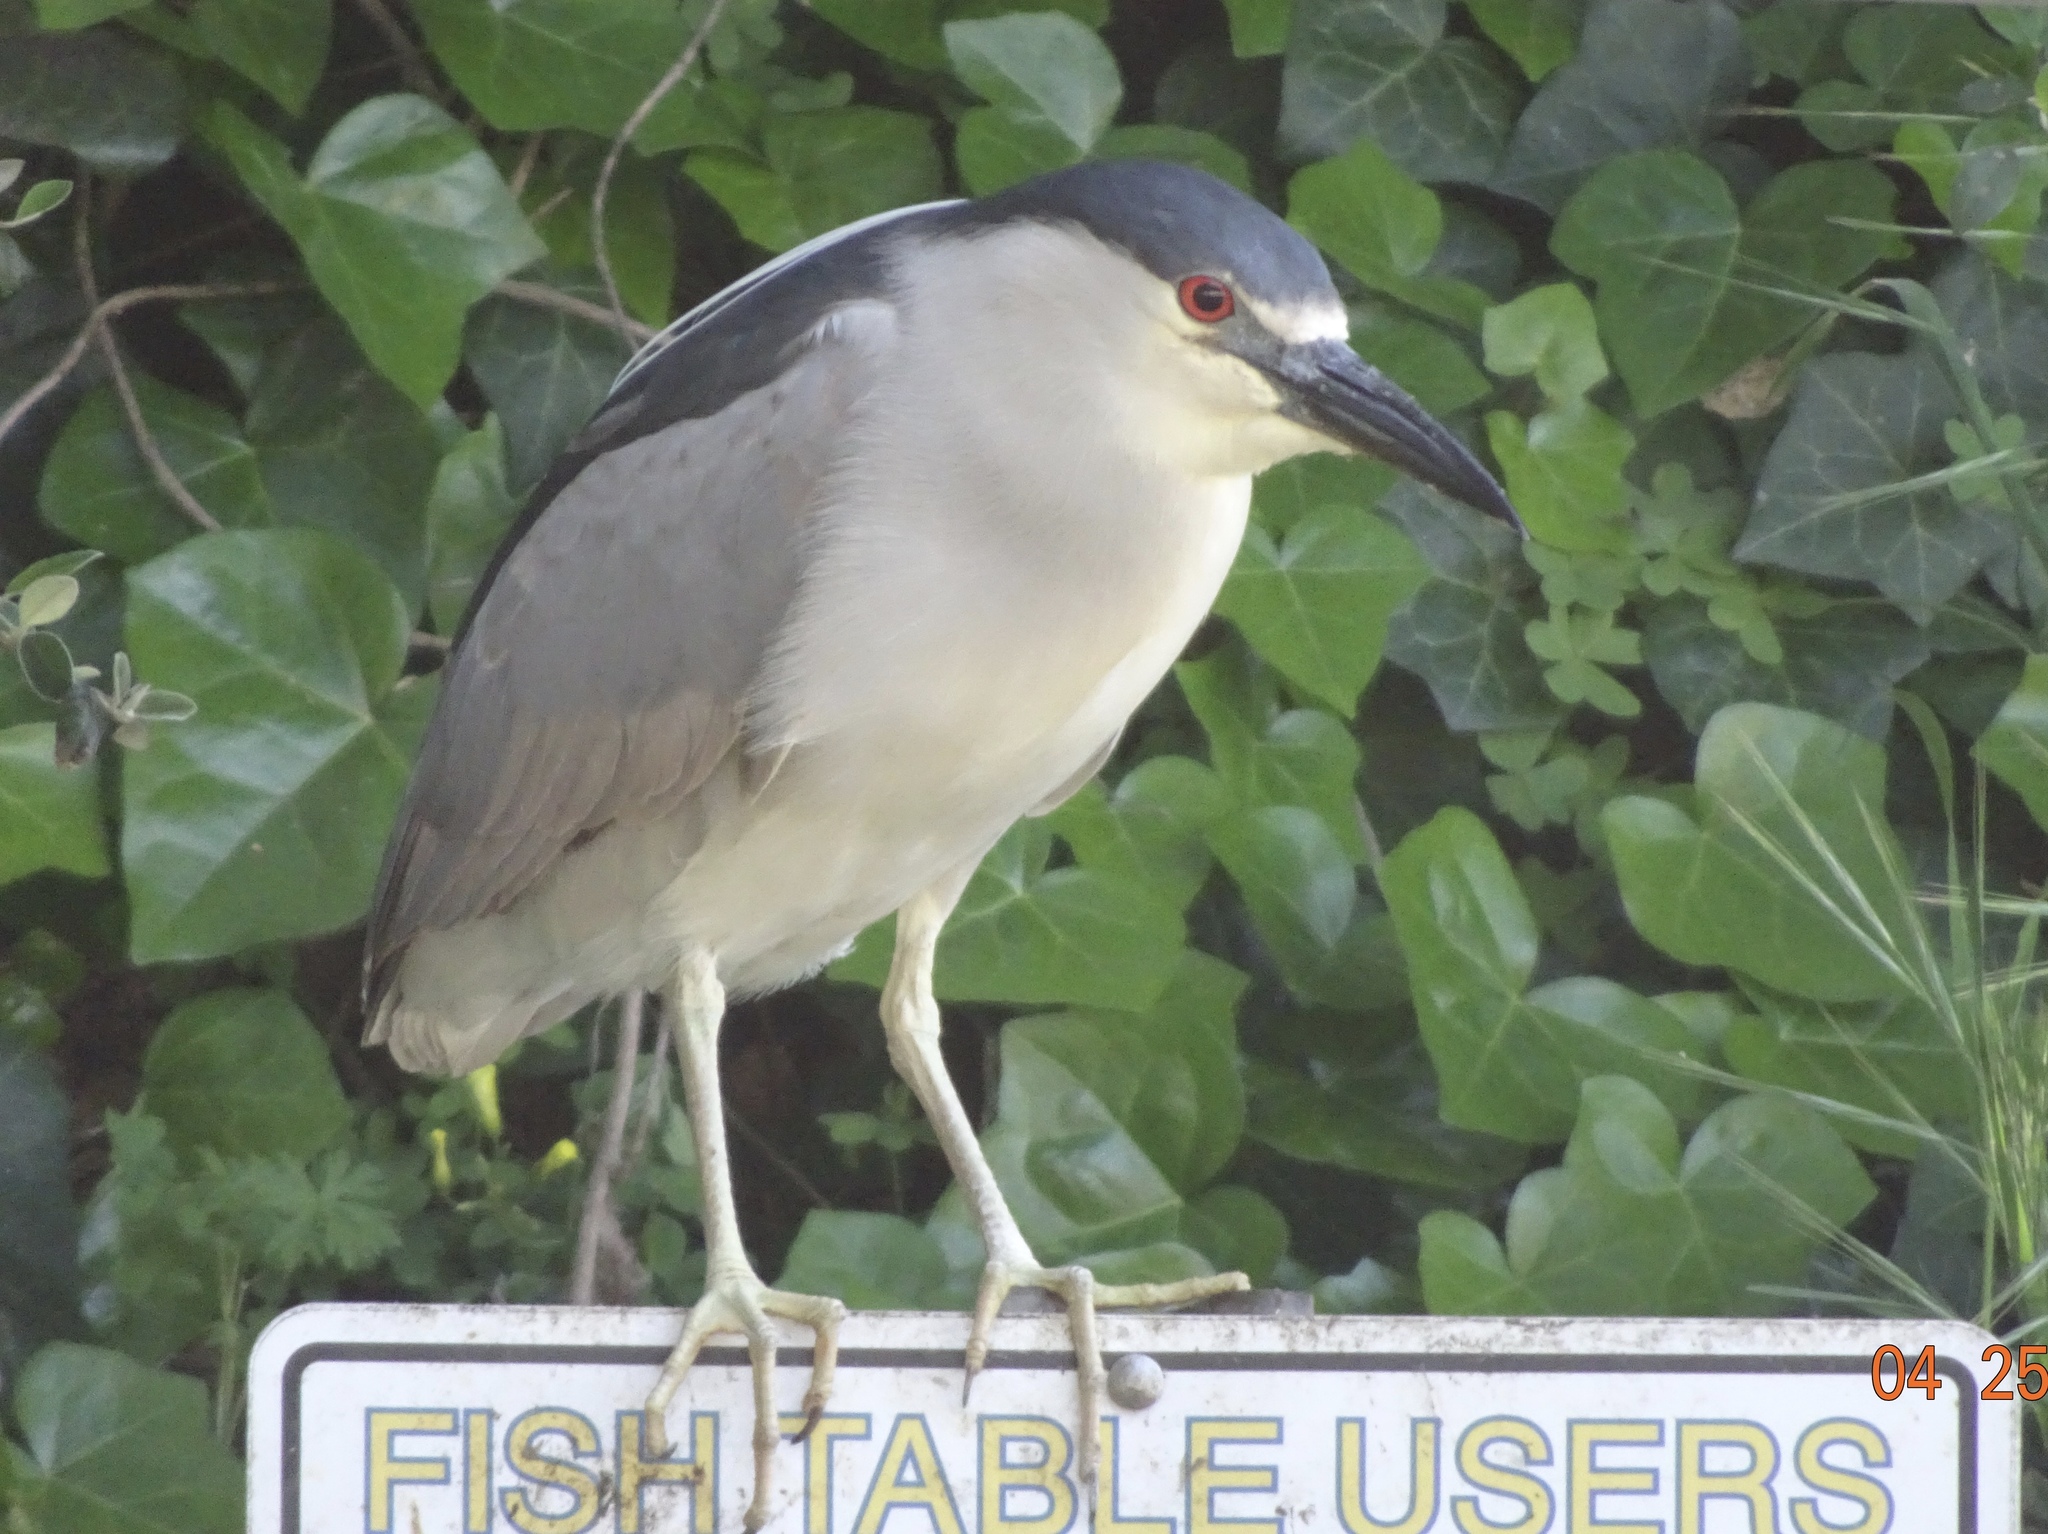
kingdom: Animalia
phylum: Chordata
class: Aves
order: Pelecaniformes
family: Ardeidae
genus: Nycticorax
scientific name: Nycticorax nycticorax
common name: Black-crowned night heron
